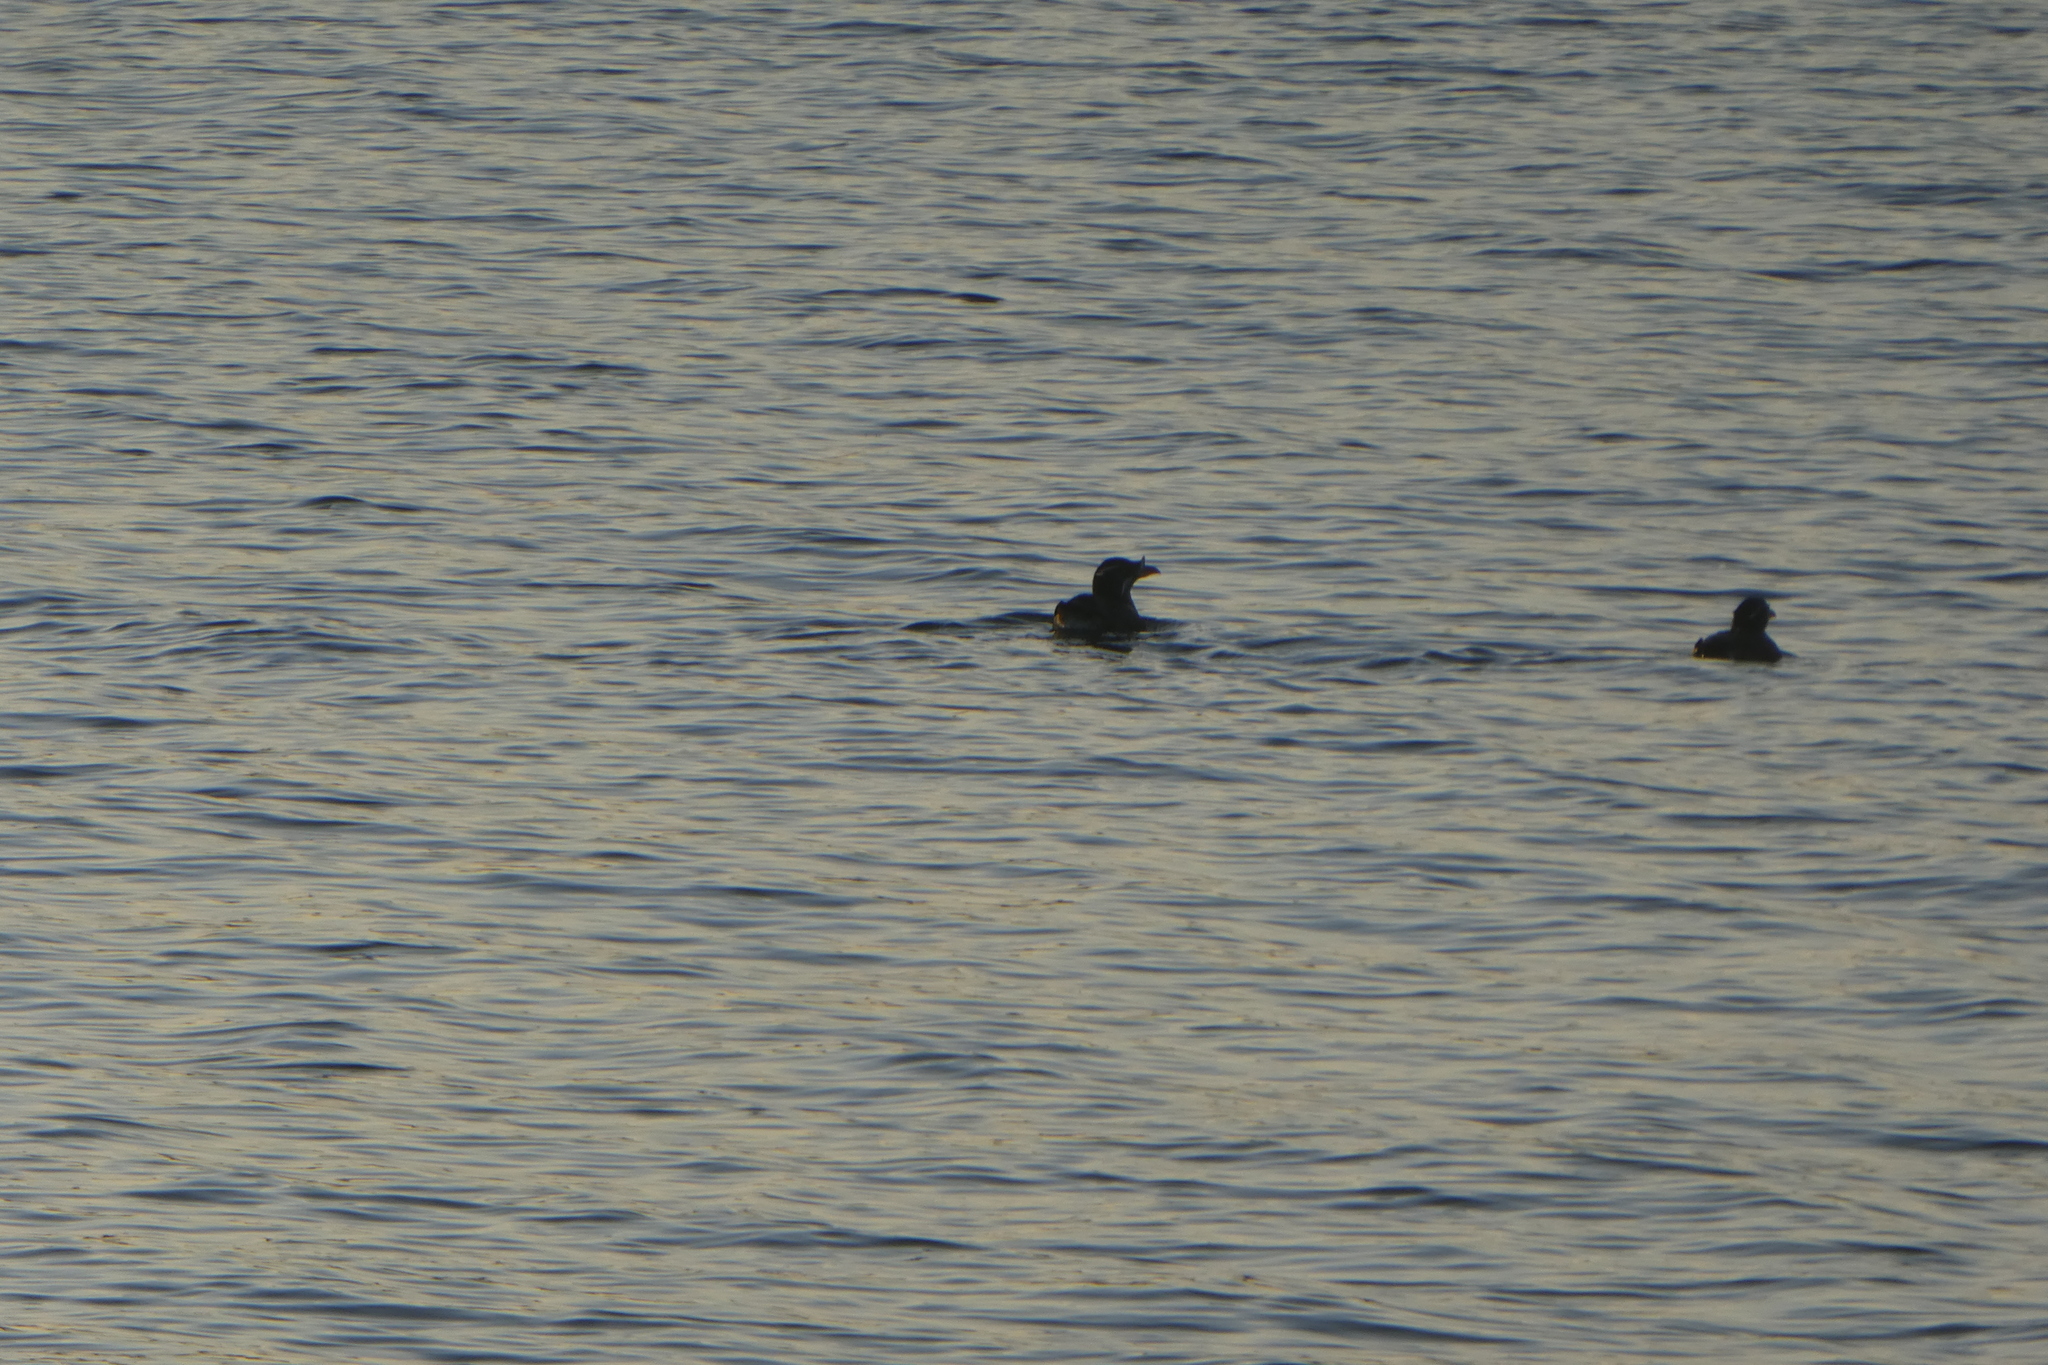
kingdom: Animalia
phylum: Chordata
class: Aves
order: Charadriiformes
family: Alcidae
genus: Cerorhinca
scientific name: Cerorhinca monocerata
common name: Rhinoceros auklet
